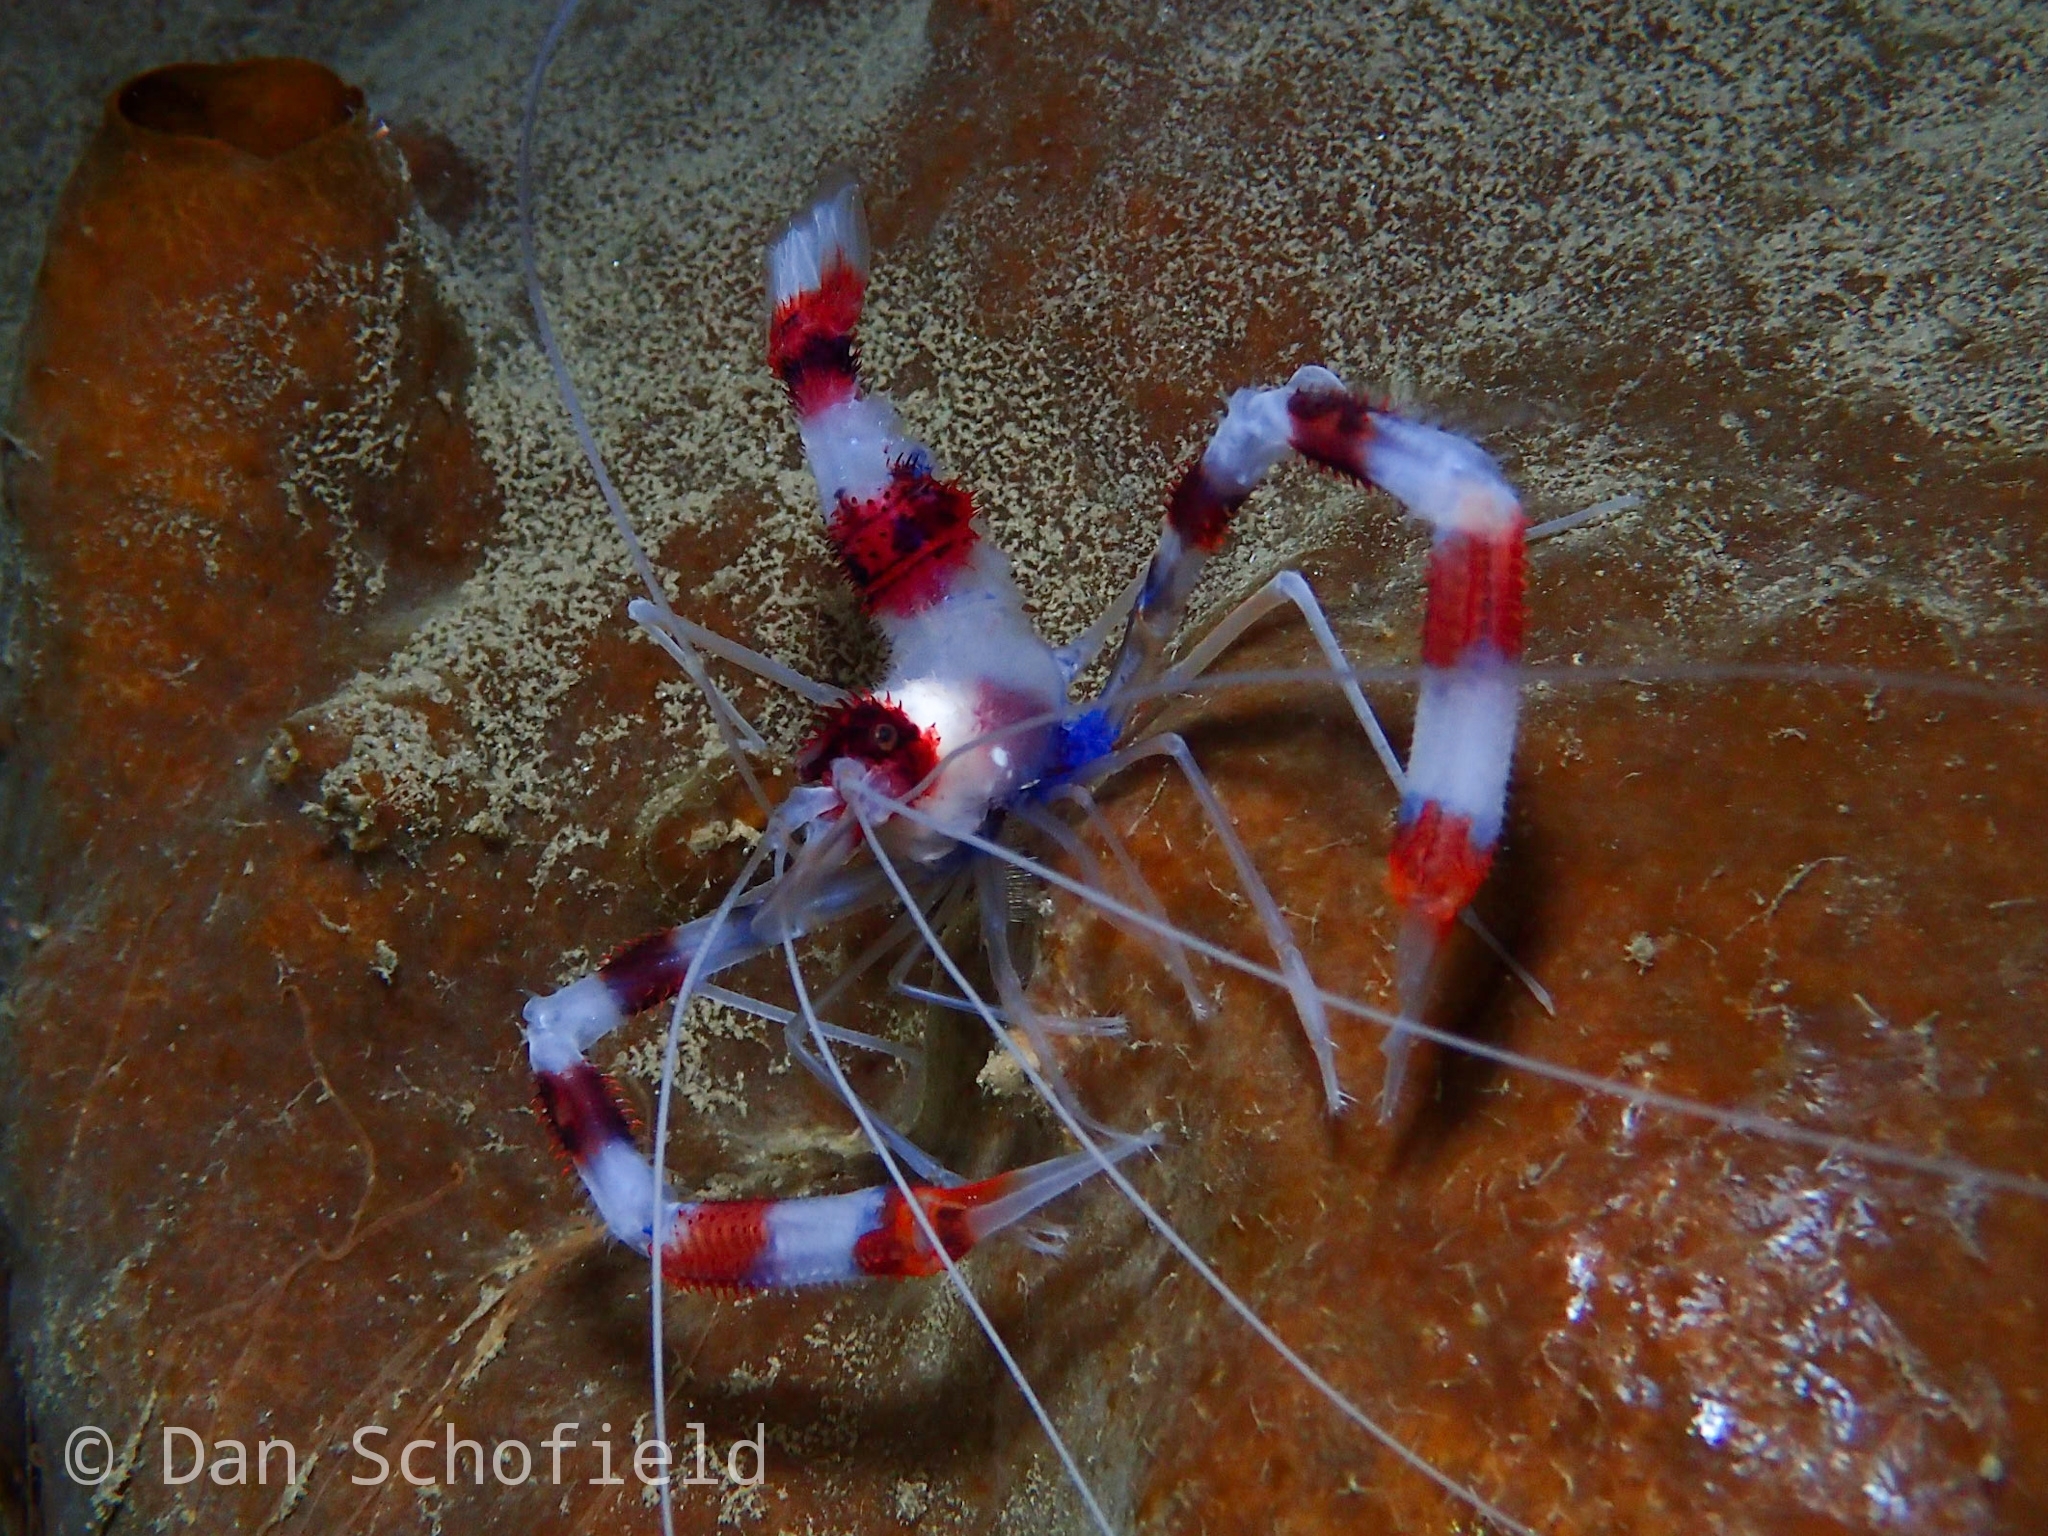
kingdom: Animalia
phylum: Arthropoda
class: Malacostraca
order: Decapoda
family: Stenopodidae
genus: Stenopus
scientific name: Stenopus hispidus
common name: Banded coral shrimp
